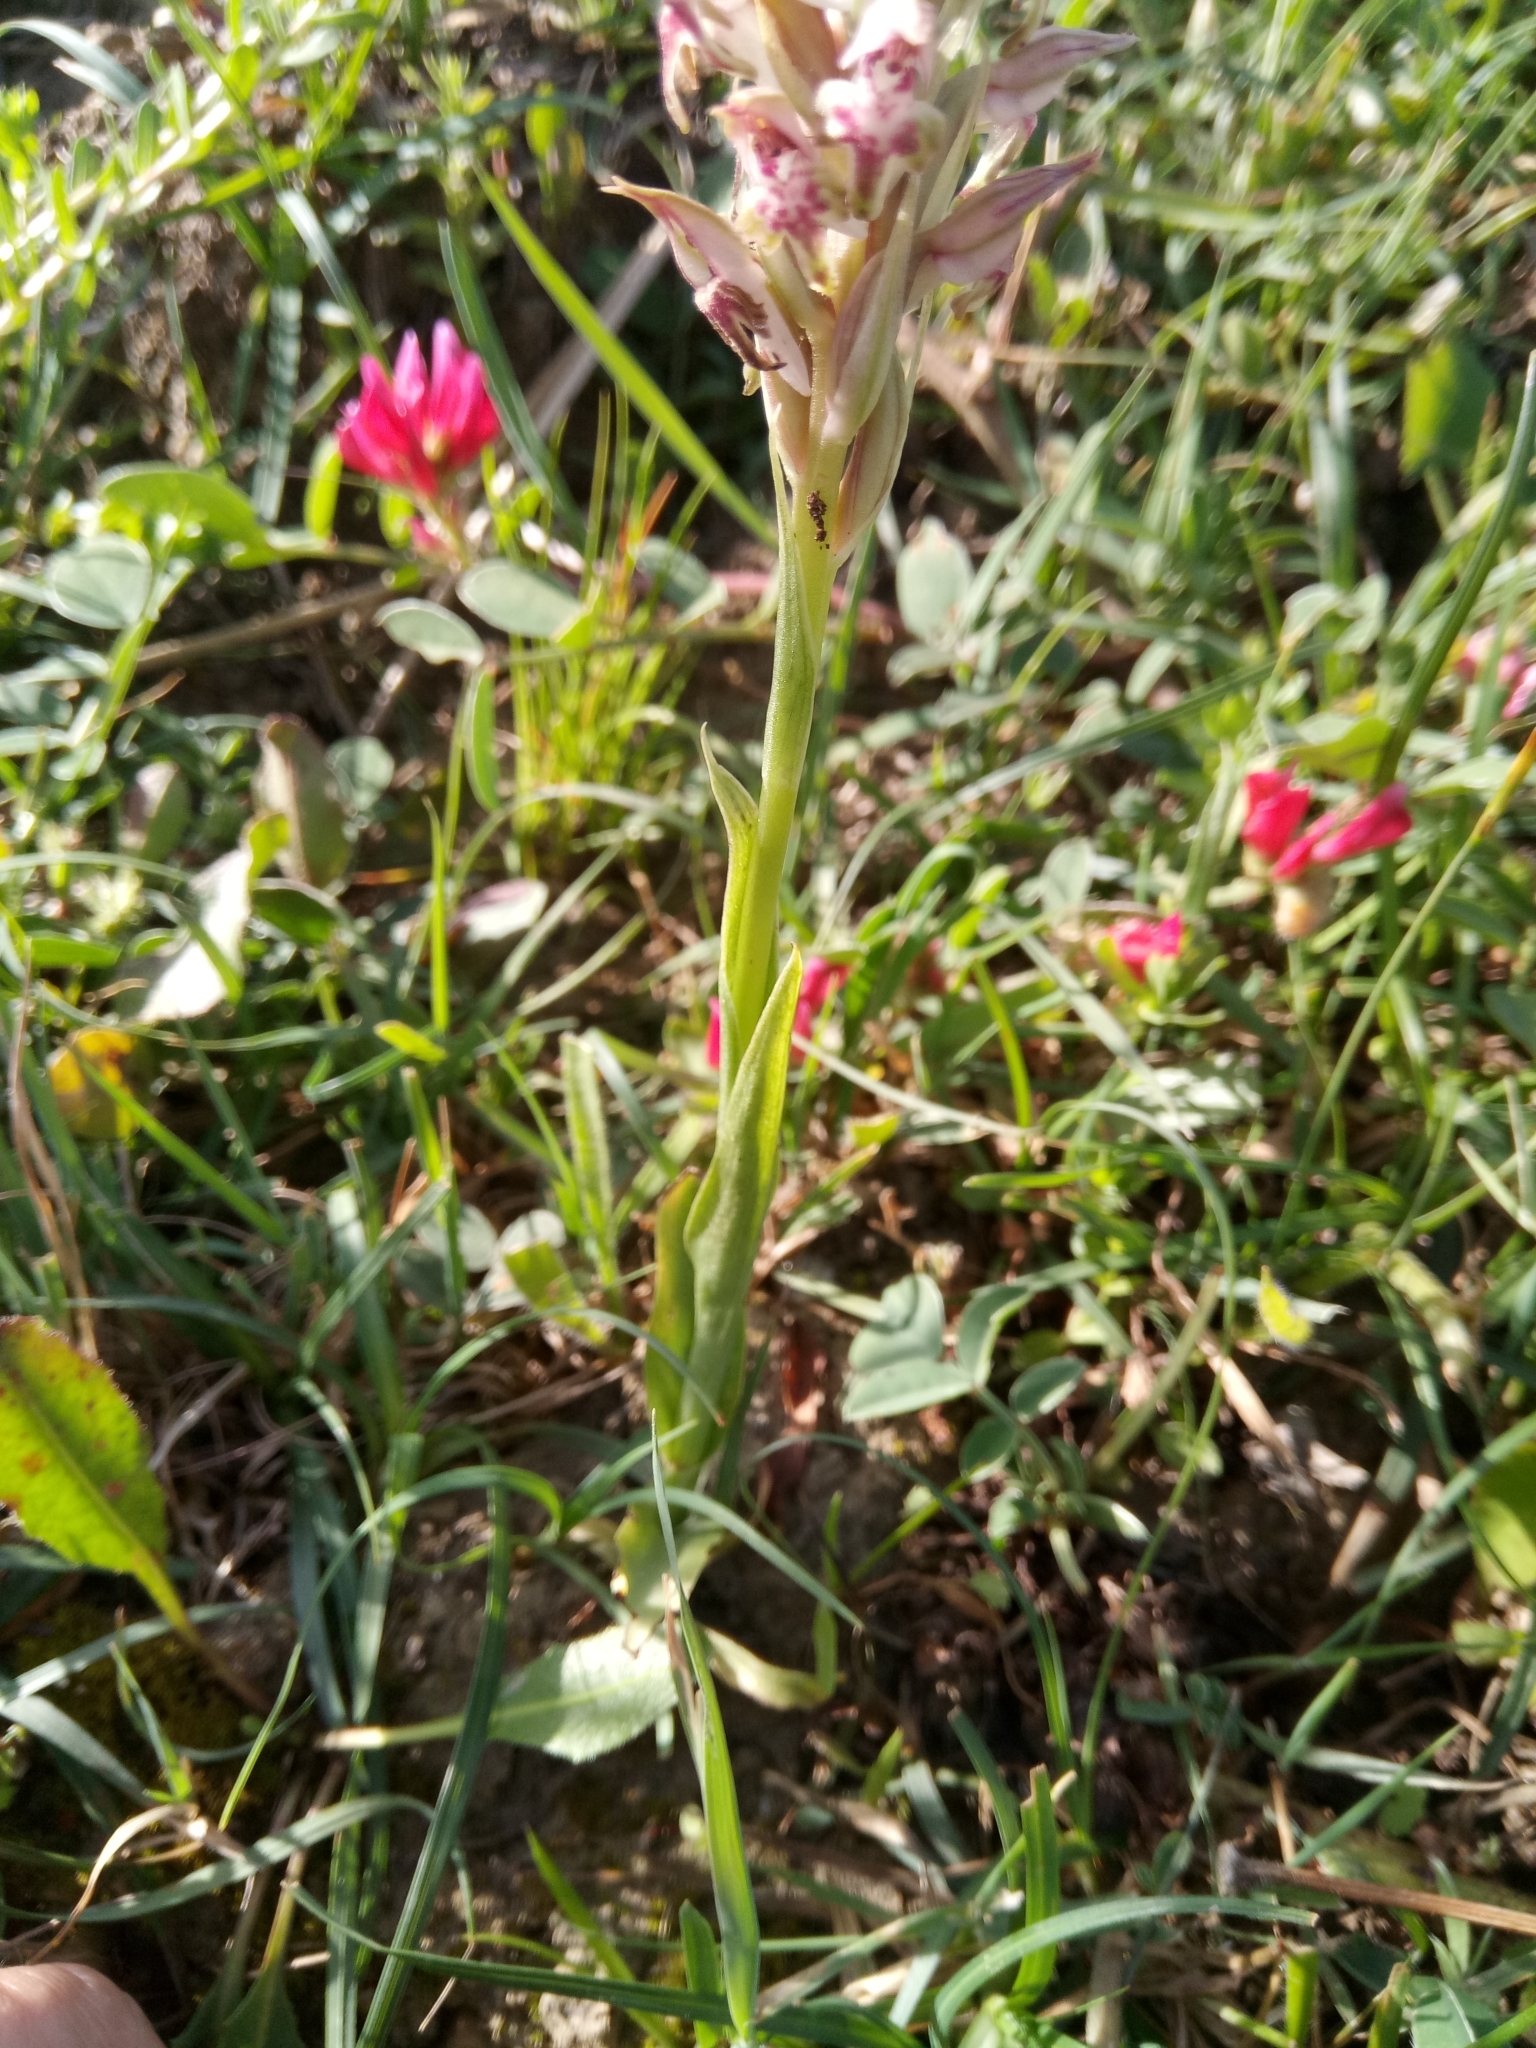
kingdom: Plantae
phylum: Tracheophyta
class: Liliopsida
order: Asparagales
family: Orchidaceae
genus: Anacamptis
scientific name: Anacamptis coriophora
